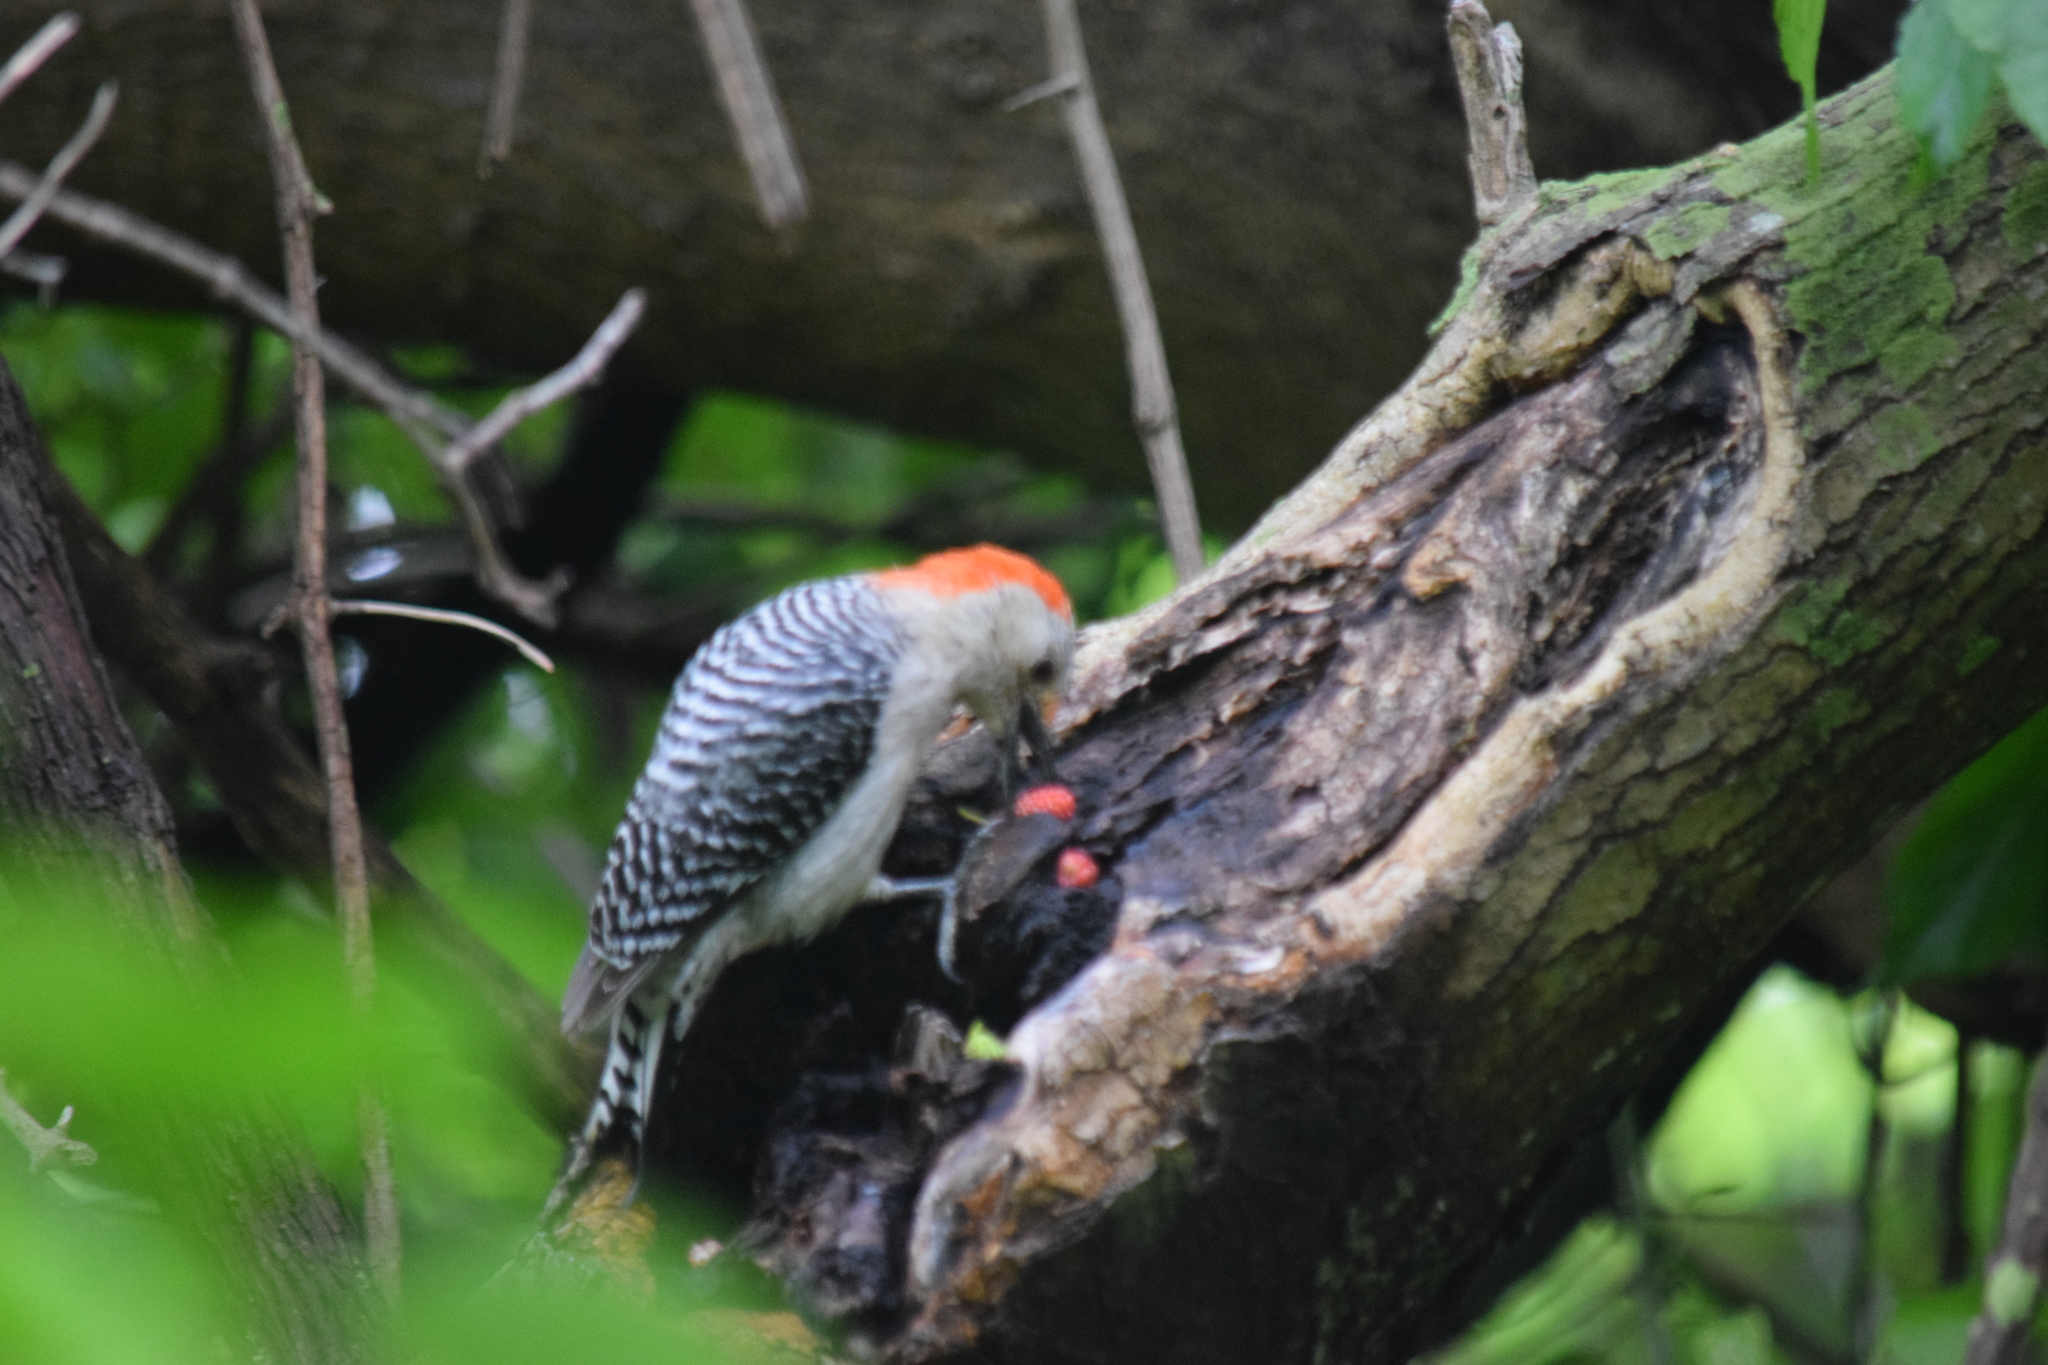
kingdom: Animalia
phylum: Chordata
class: Aves
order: Piciformes
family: Picidae
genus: Melanerpes
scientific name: Melanerpes carolinus
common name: Red-bellied woodpecker
